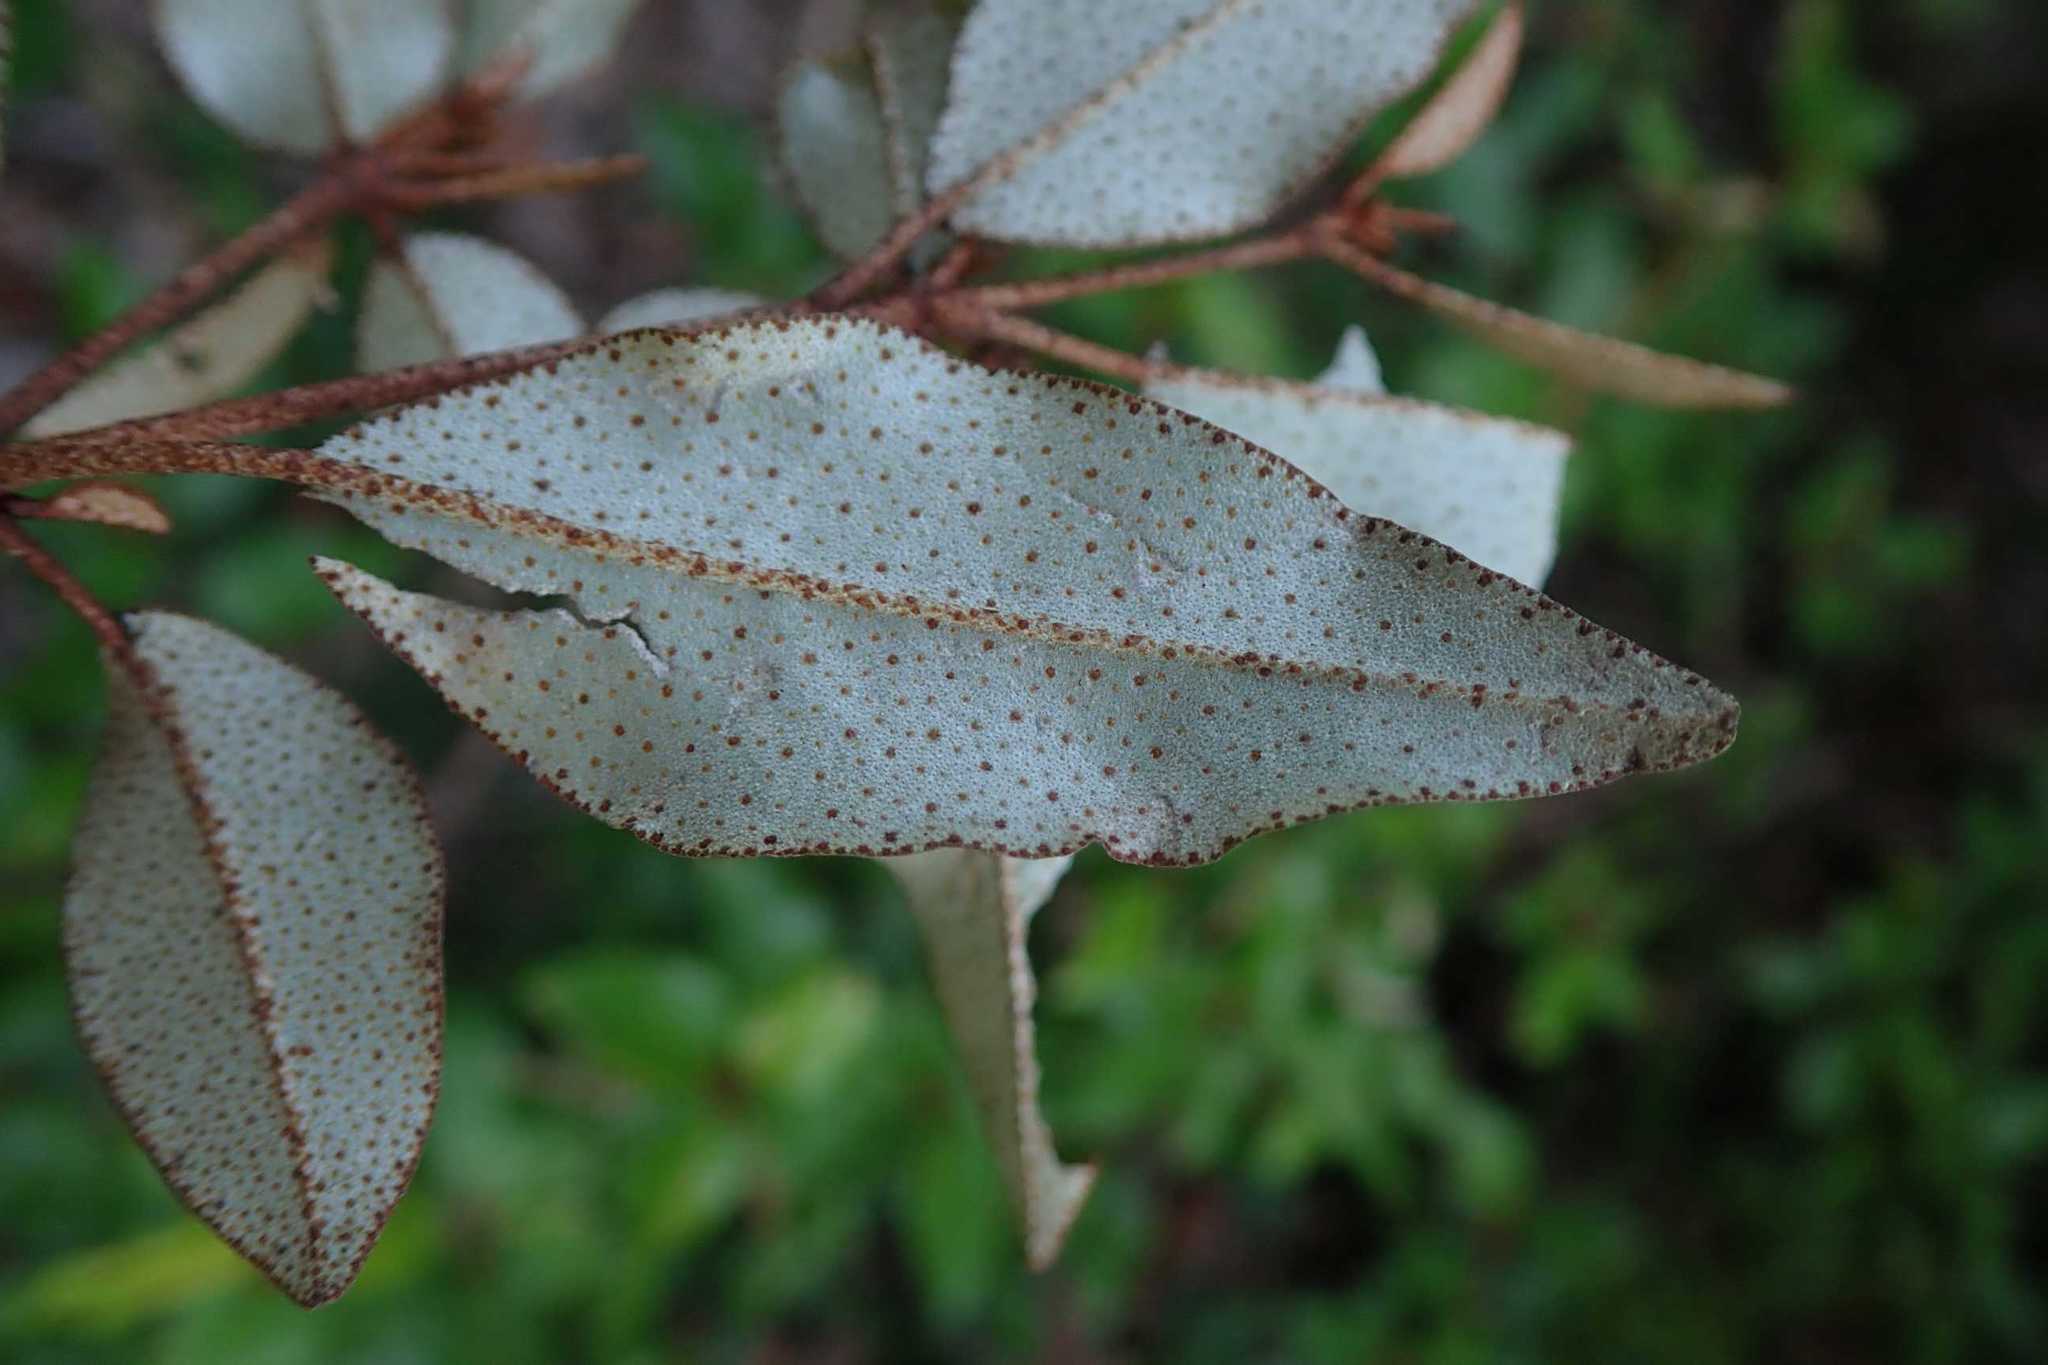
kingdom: Plantae
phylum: Tracheophyta
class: Magnoliopsida
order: Malpighiales
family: Euphorbiaceae
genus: Croton
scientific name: Croton pseudopulchellus
